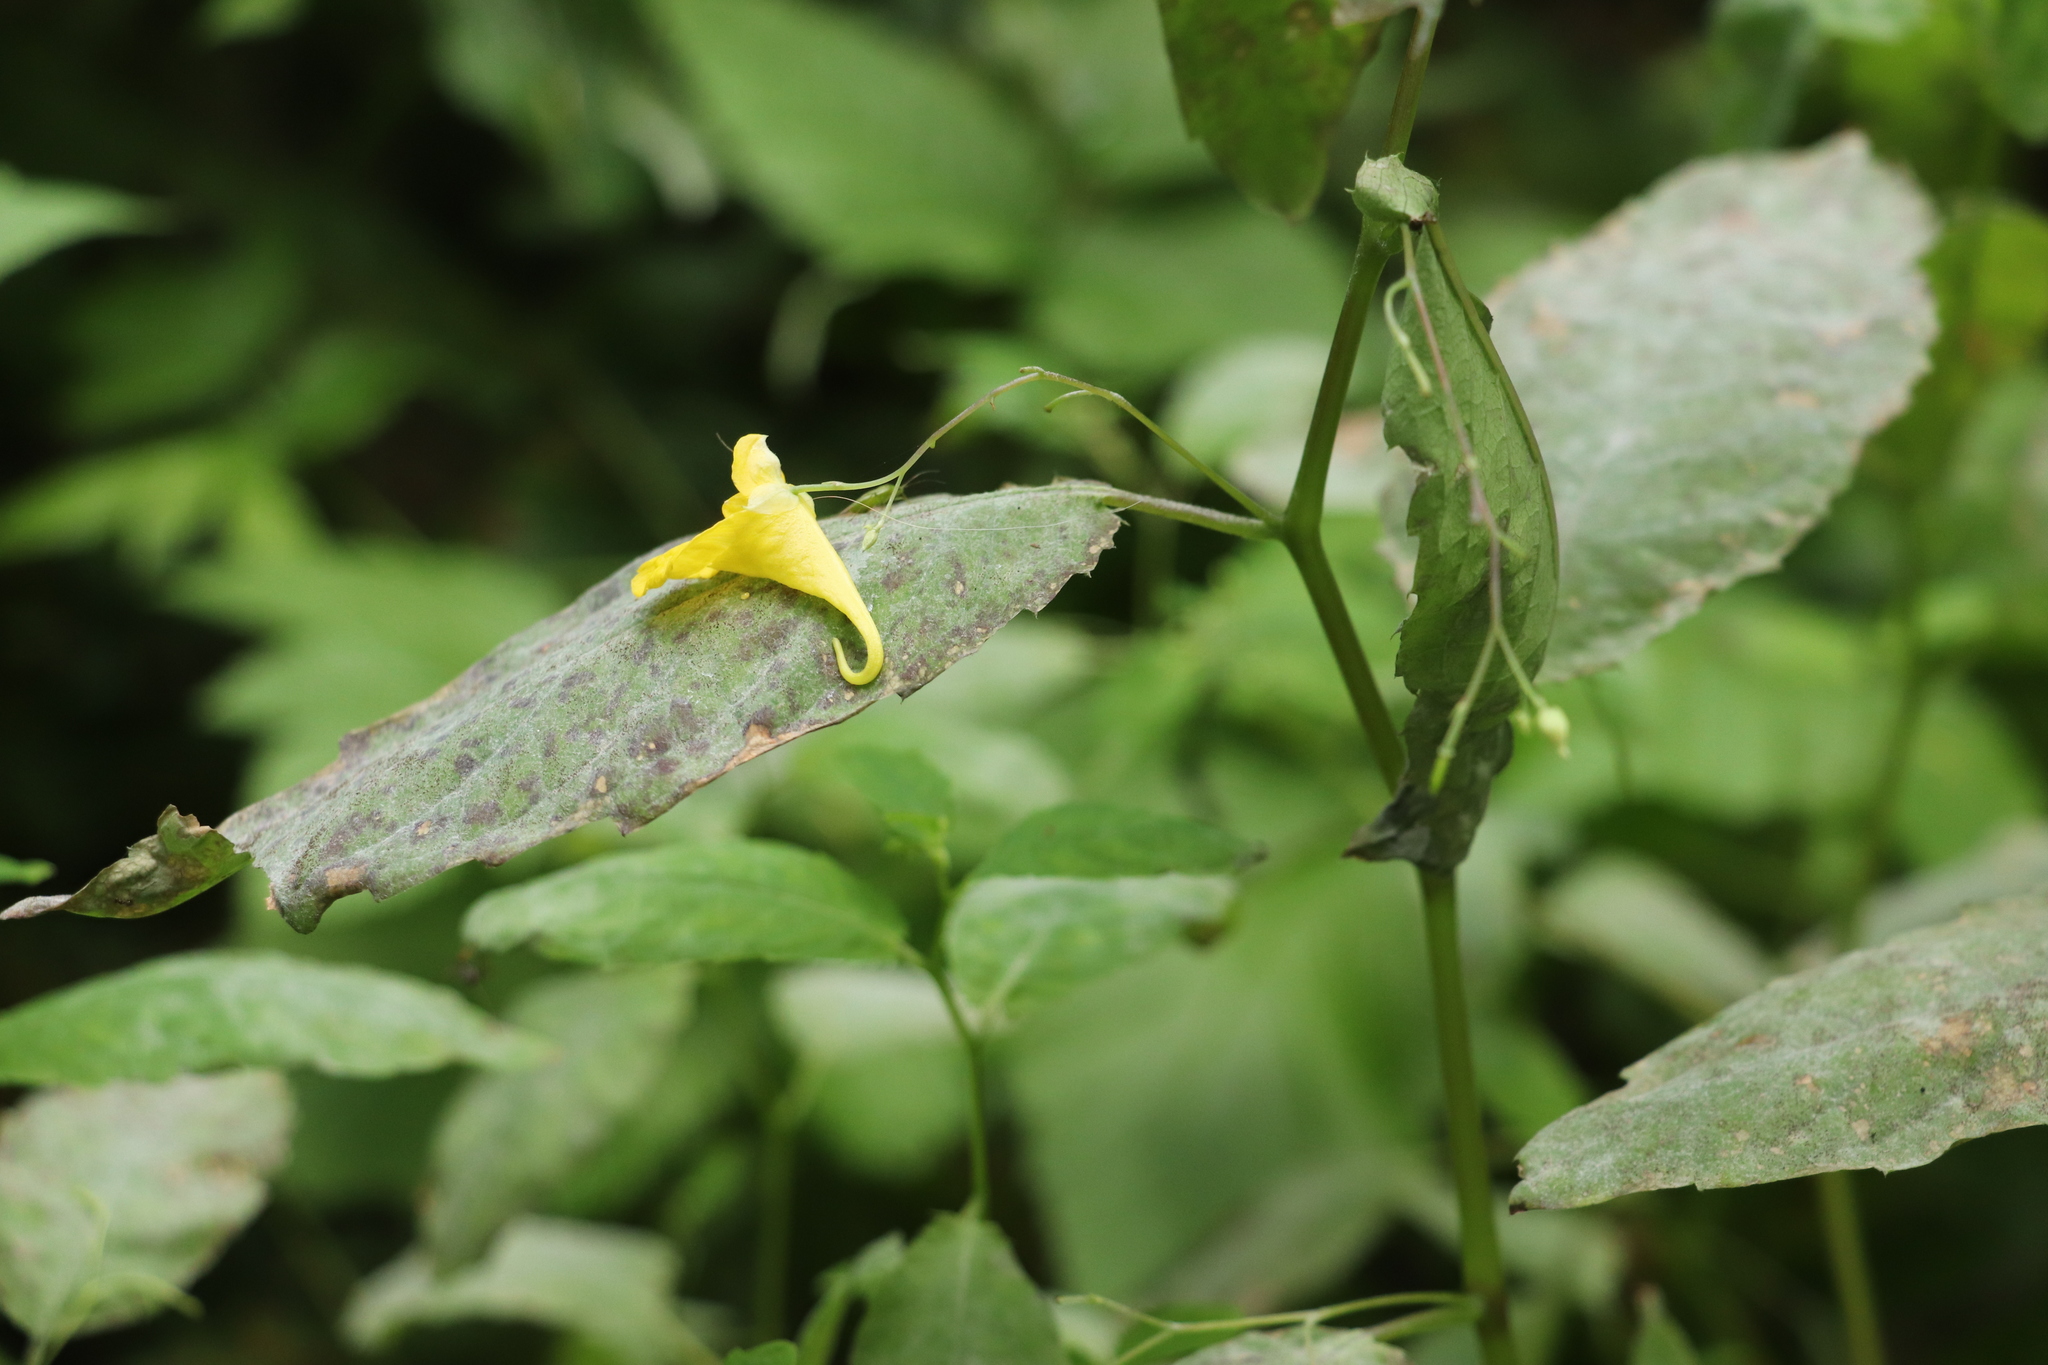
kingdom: Plantae
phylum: Tracheophyta
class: Magnoliopsida
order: Ericales
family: Balsaminaceae
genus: Impatiens
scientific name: Impatiens noli-tangere
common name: Touch-me-not balsam
